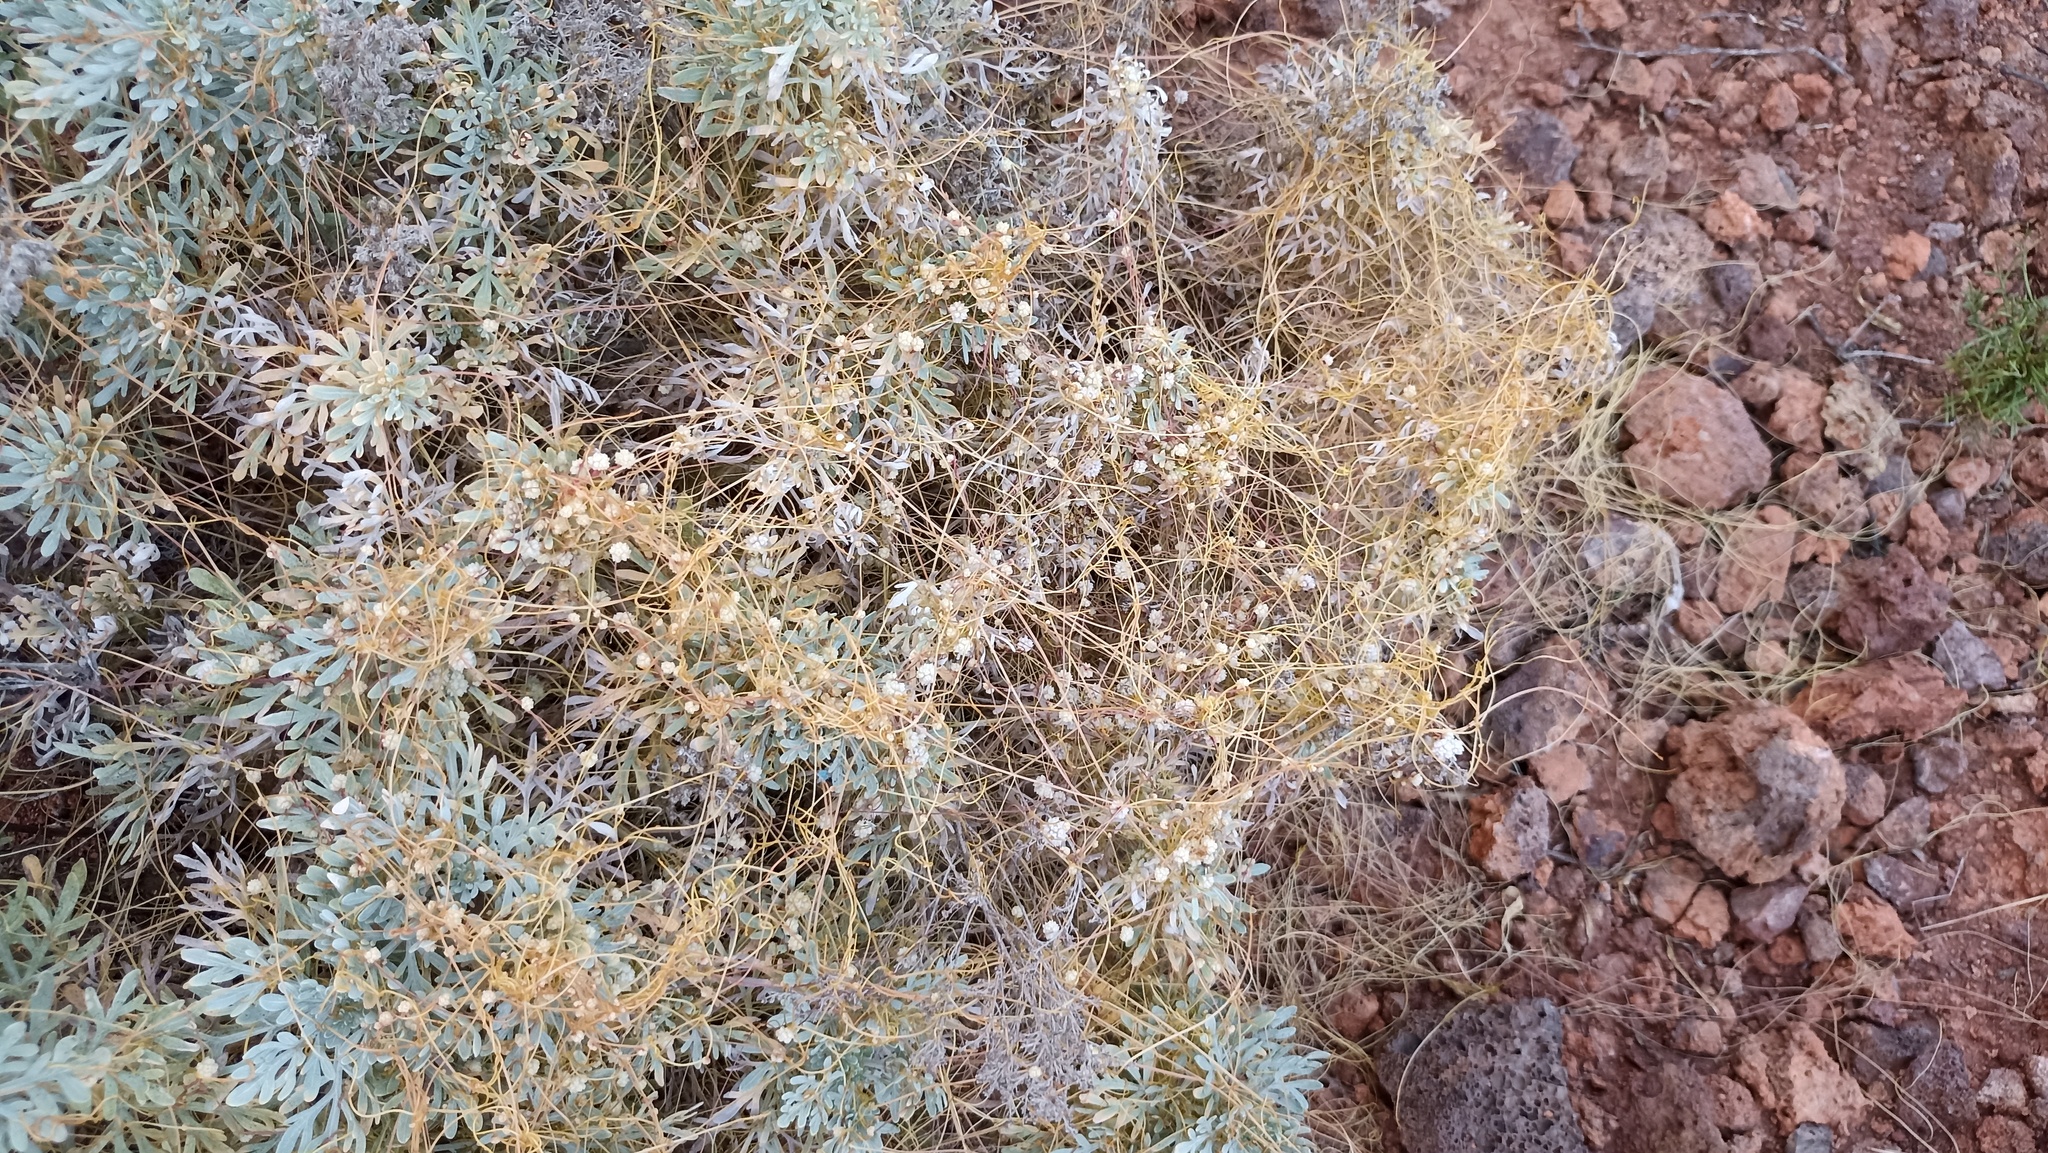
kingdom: Plantae
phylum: Tracheophyta
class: Magnoliopsida
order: Solanales
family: Convolvulaceae
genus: Cuscuta
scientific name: Cuscuta planiflora
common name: Small-seed alfalfa dodder
